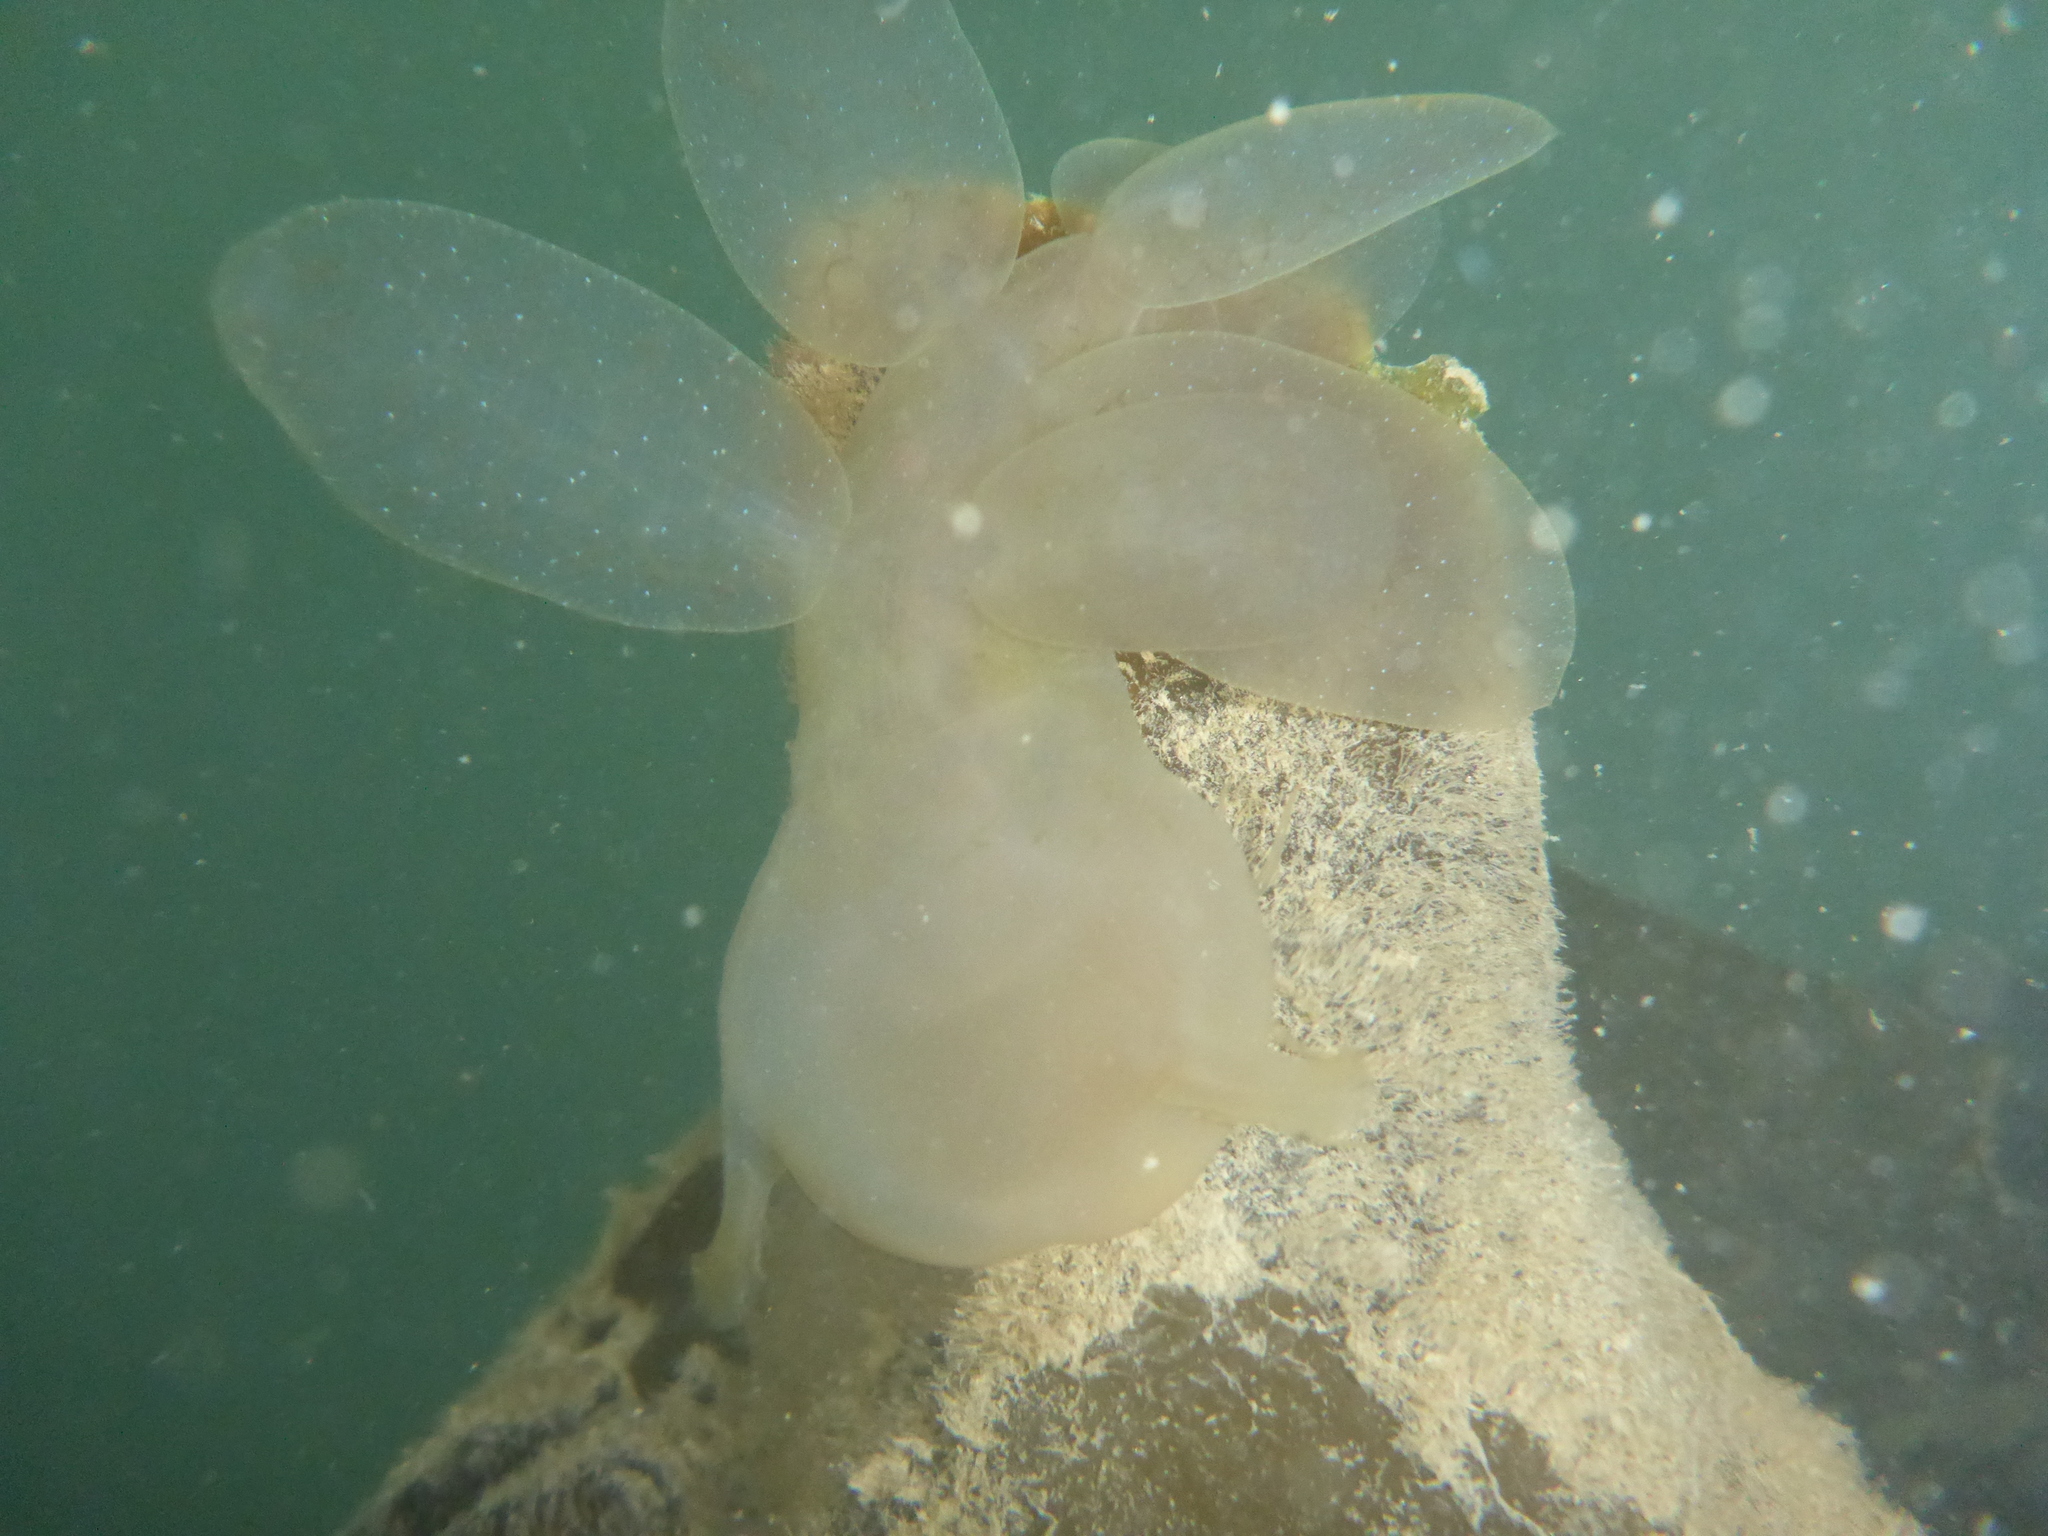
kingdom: Animalia
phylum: Mollusca
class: Gastropoda
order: Nudibranchia
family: Tethydidae
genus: Melibe
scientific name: Melibe leonina
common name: Lion nudibranch
